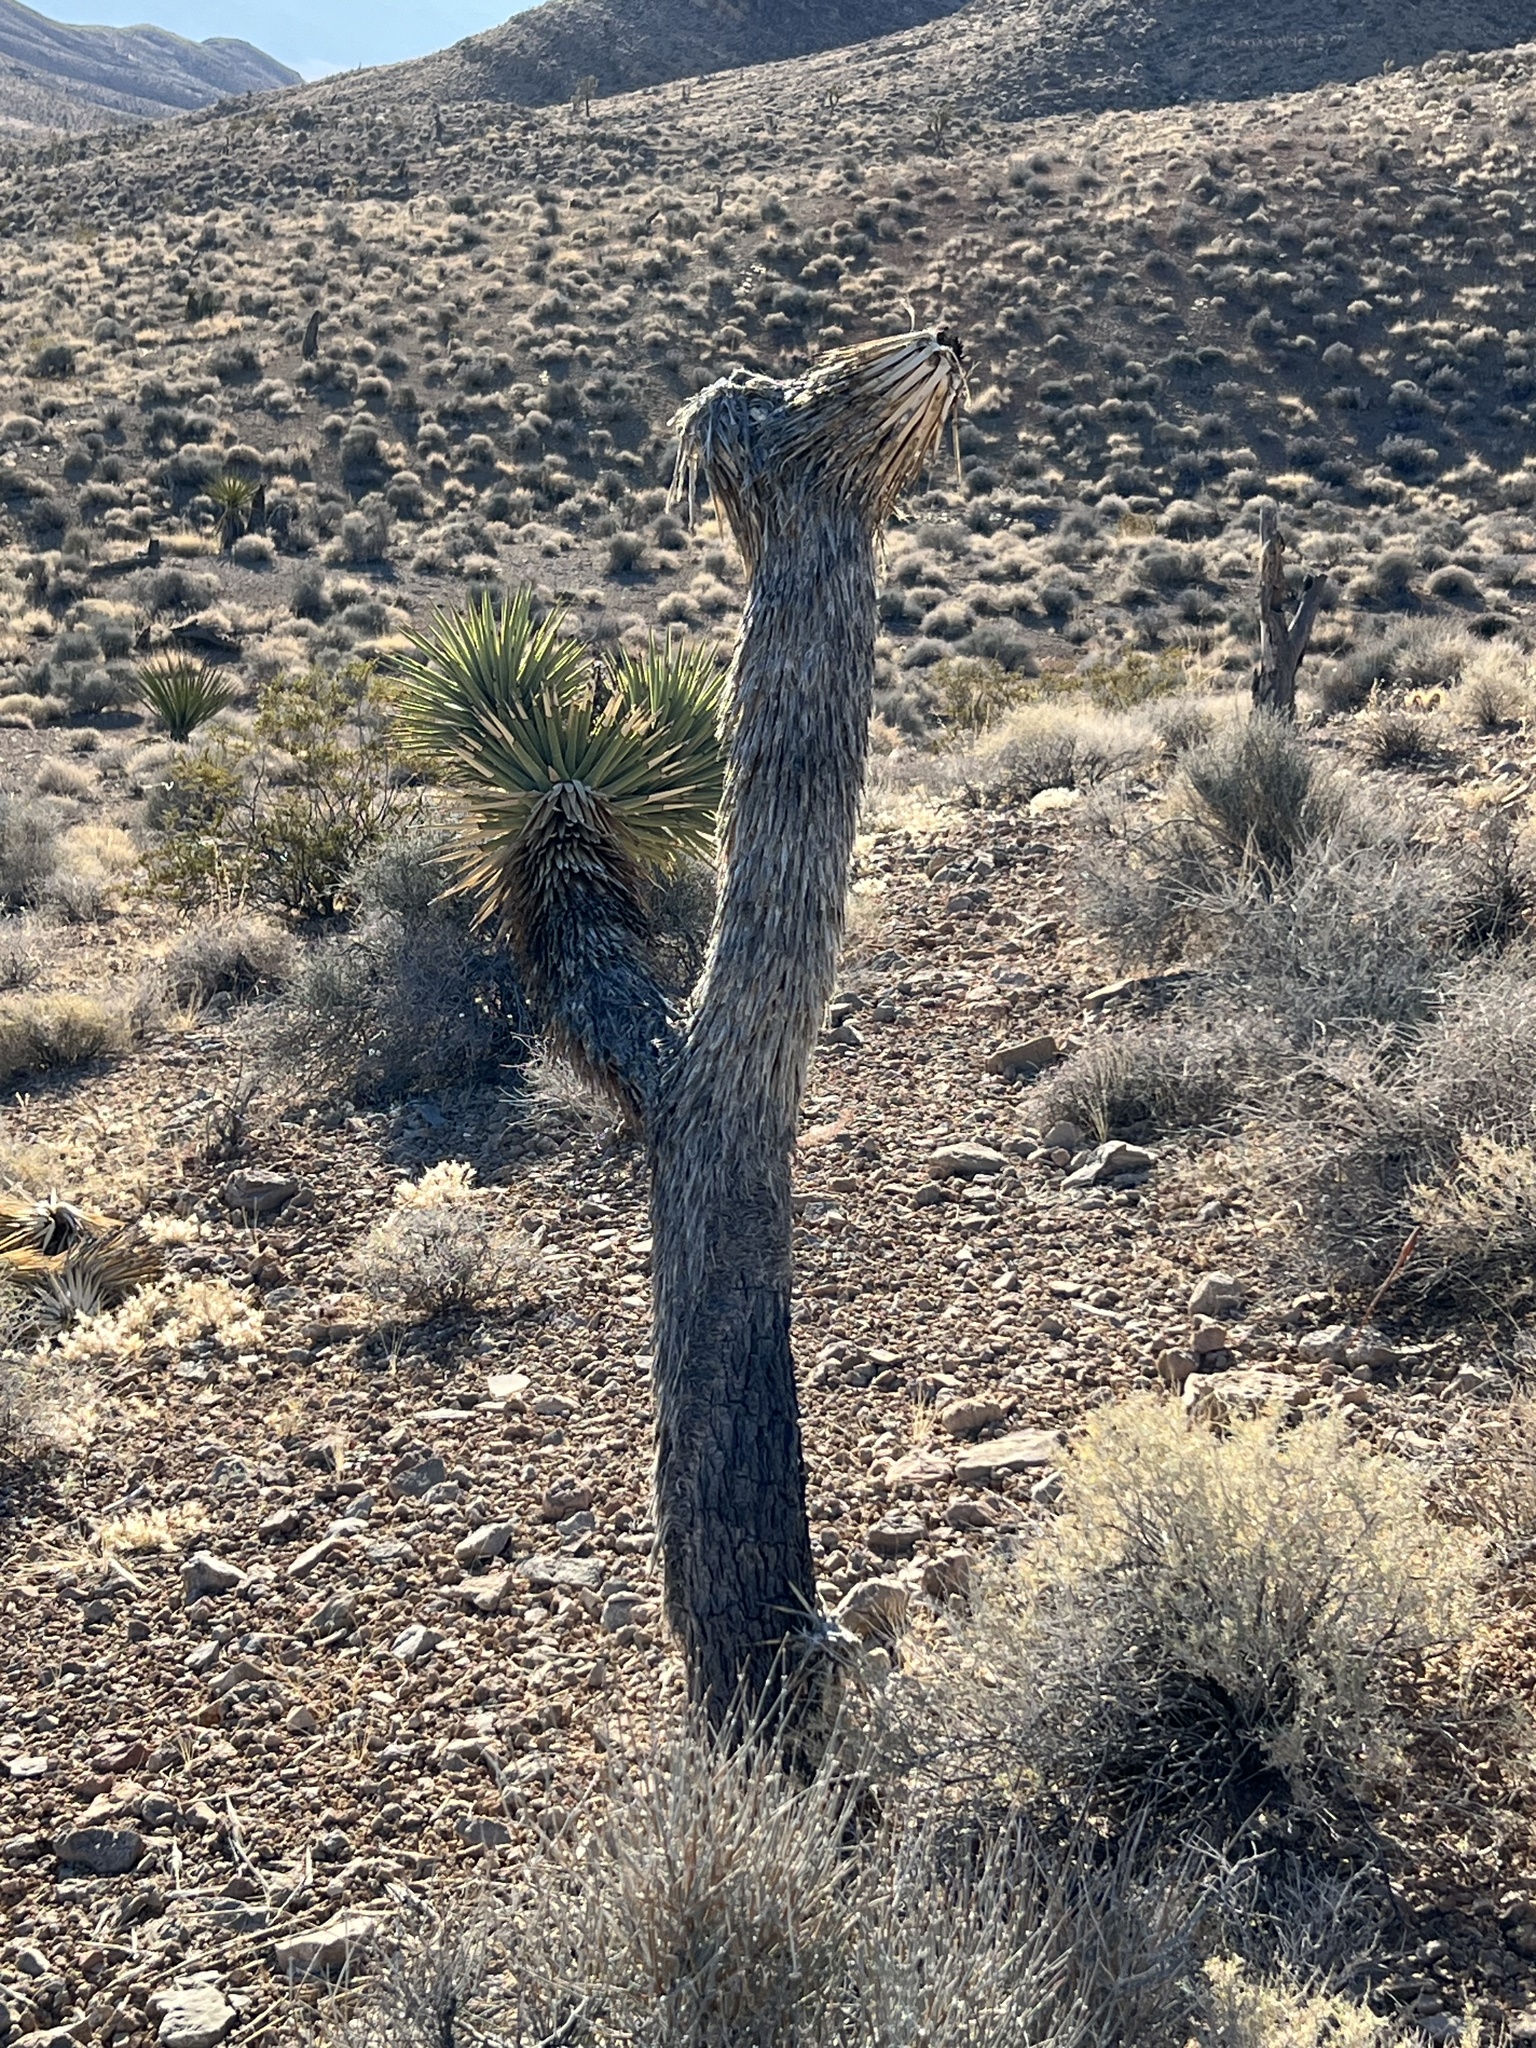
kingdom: Plantae
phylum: Tracheophyta
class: Liliopsida
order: Asparagales
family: Asparagaceae
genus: Yucca
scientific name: Yucca brevifolia
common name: Joshua tree
